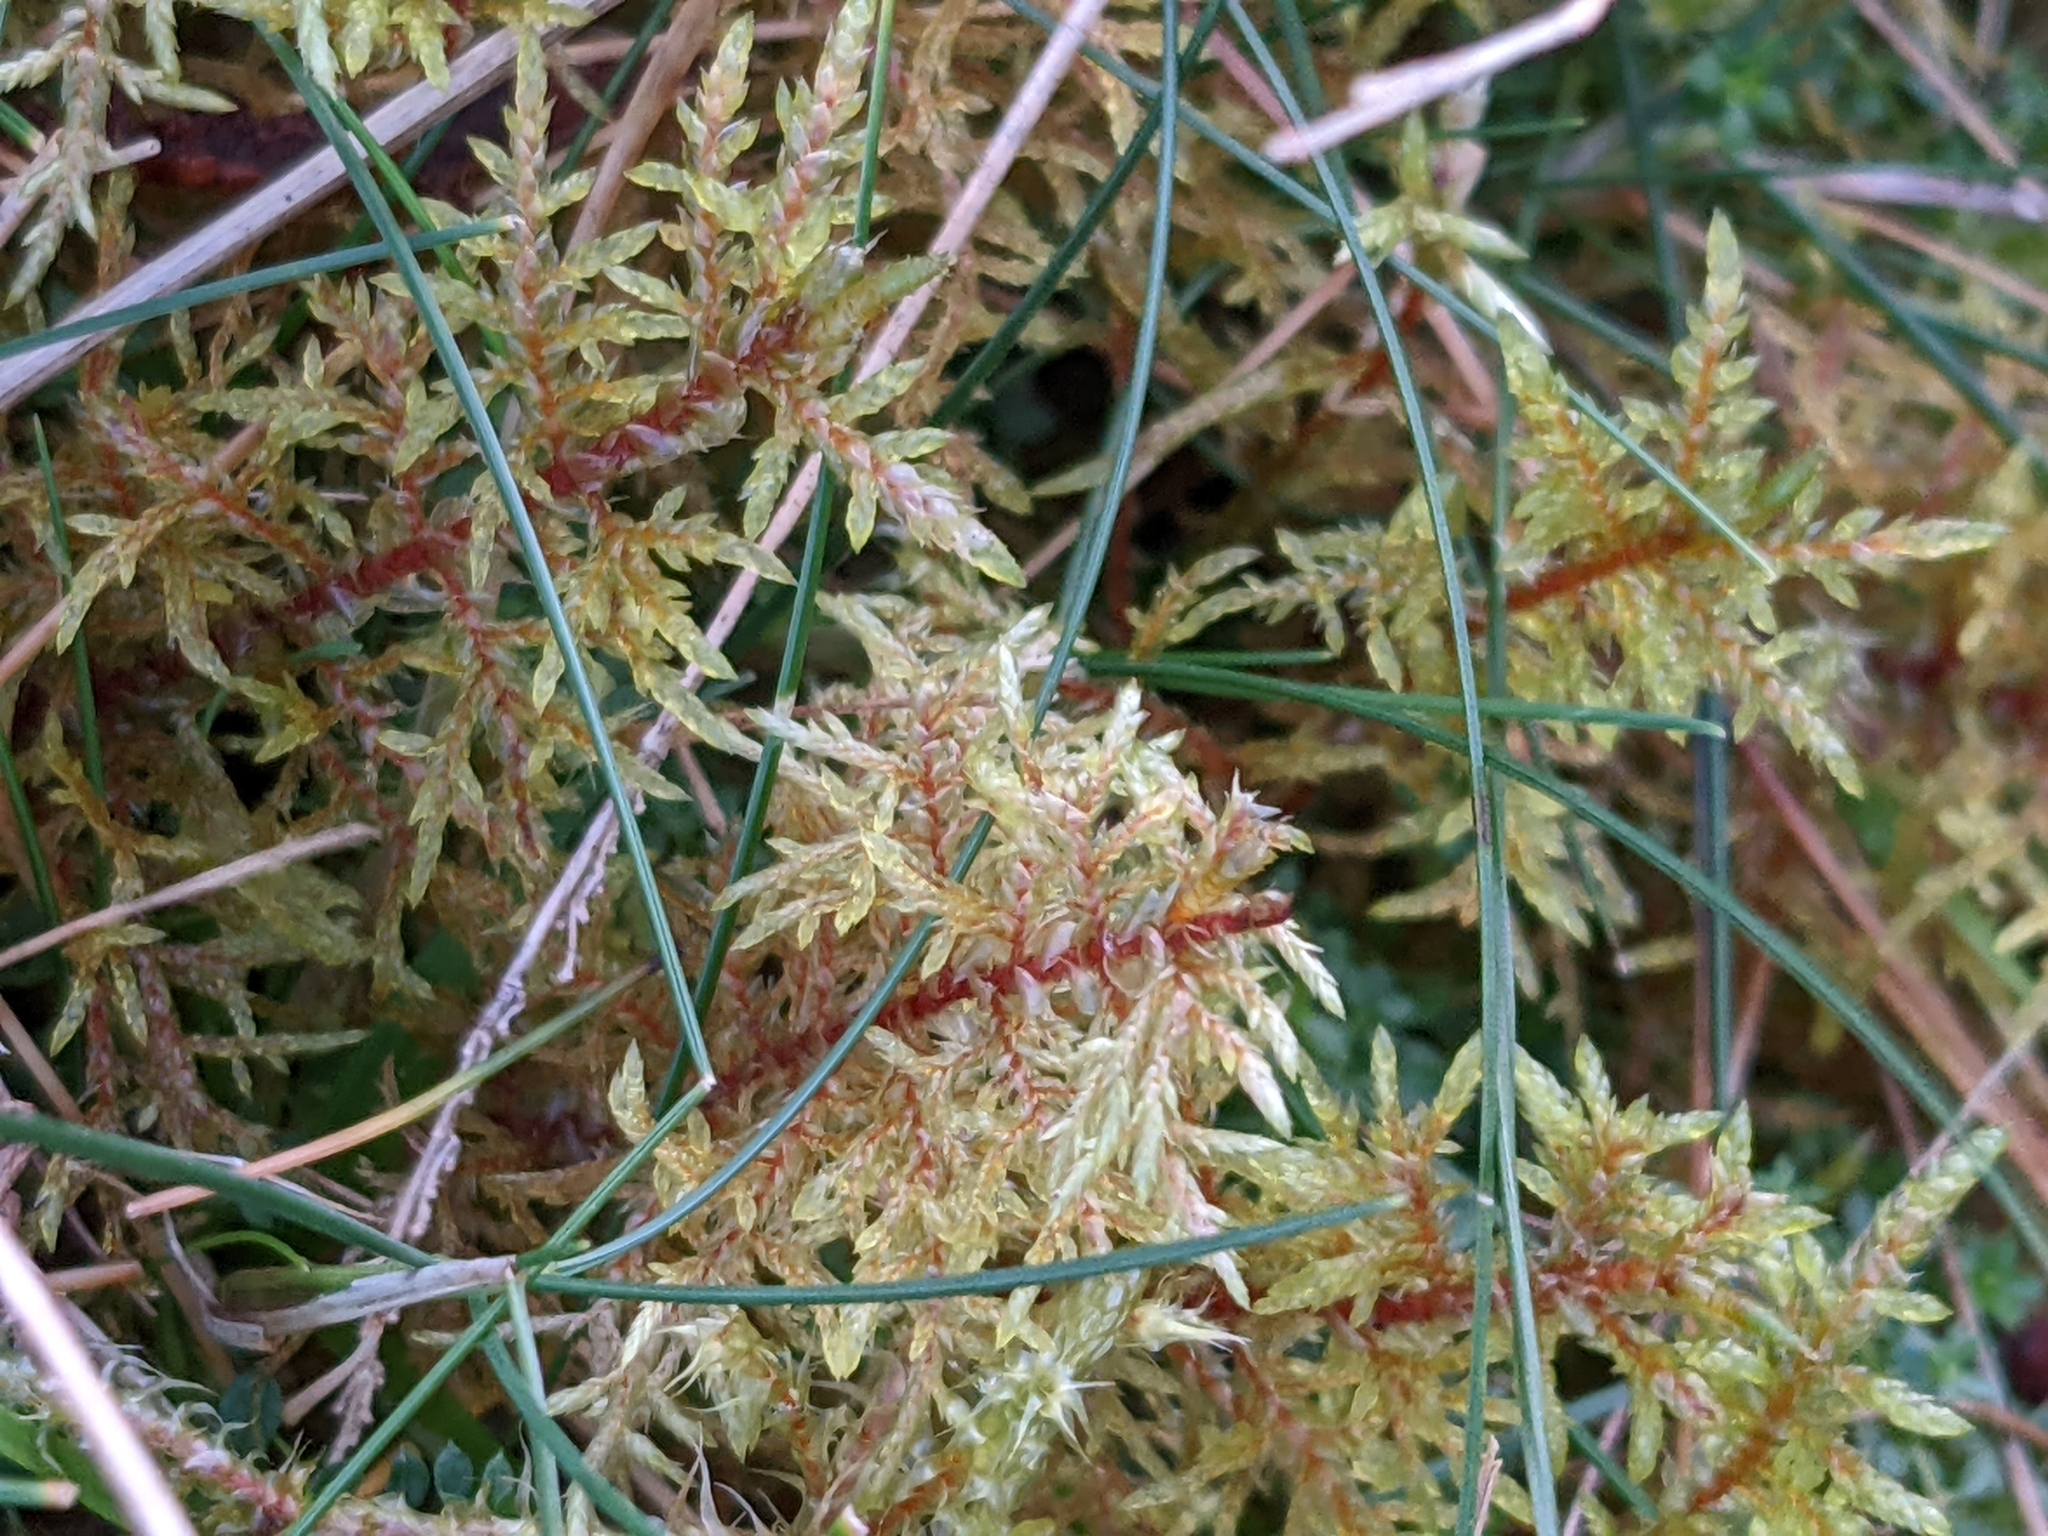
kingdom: Plantae
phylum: Bryophyta
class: Bryopsida
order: Hypnales
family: Hylocomiaceae
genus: Hylocomium
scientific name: Hylocomium splendens
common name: Stairstep moss
